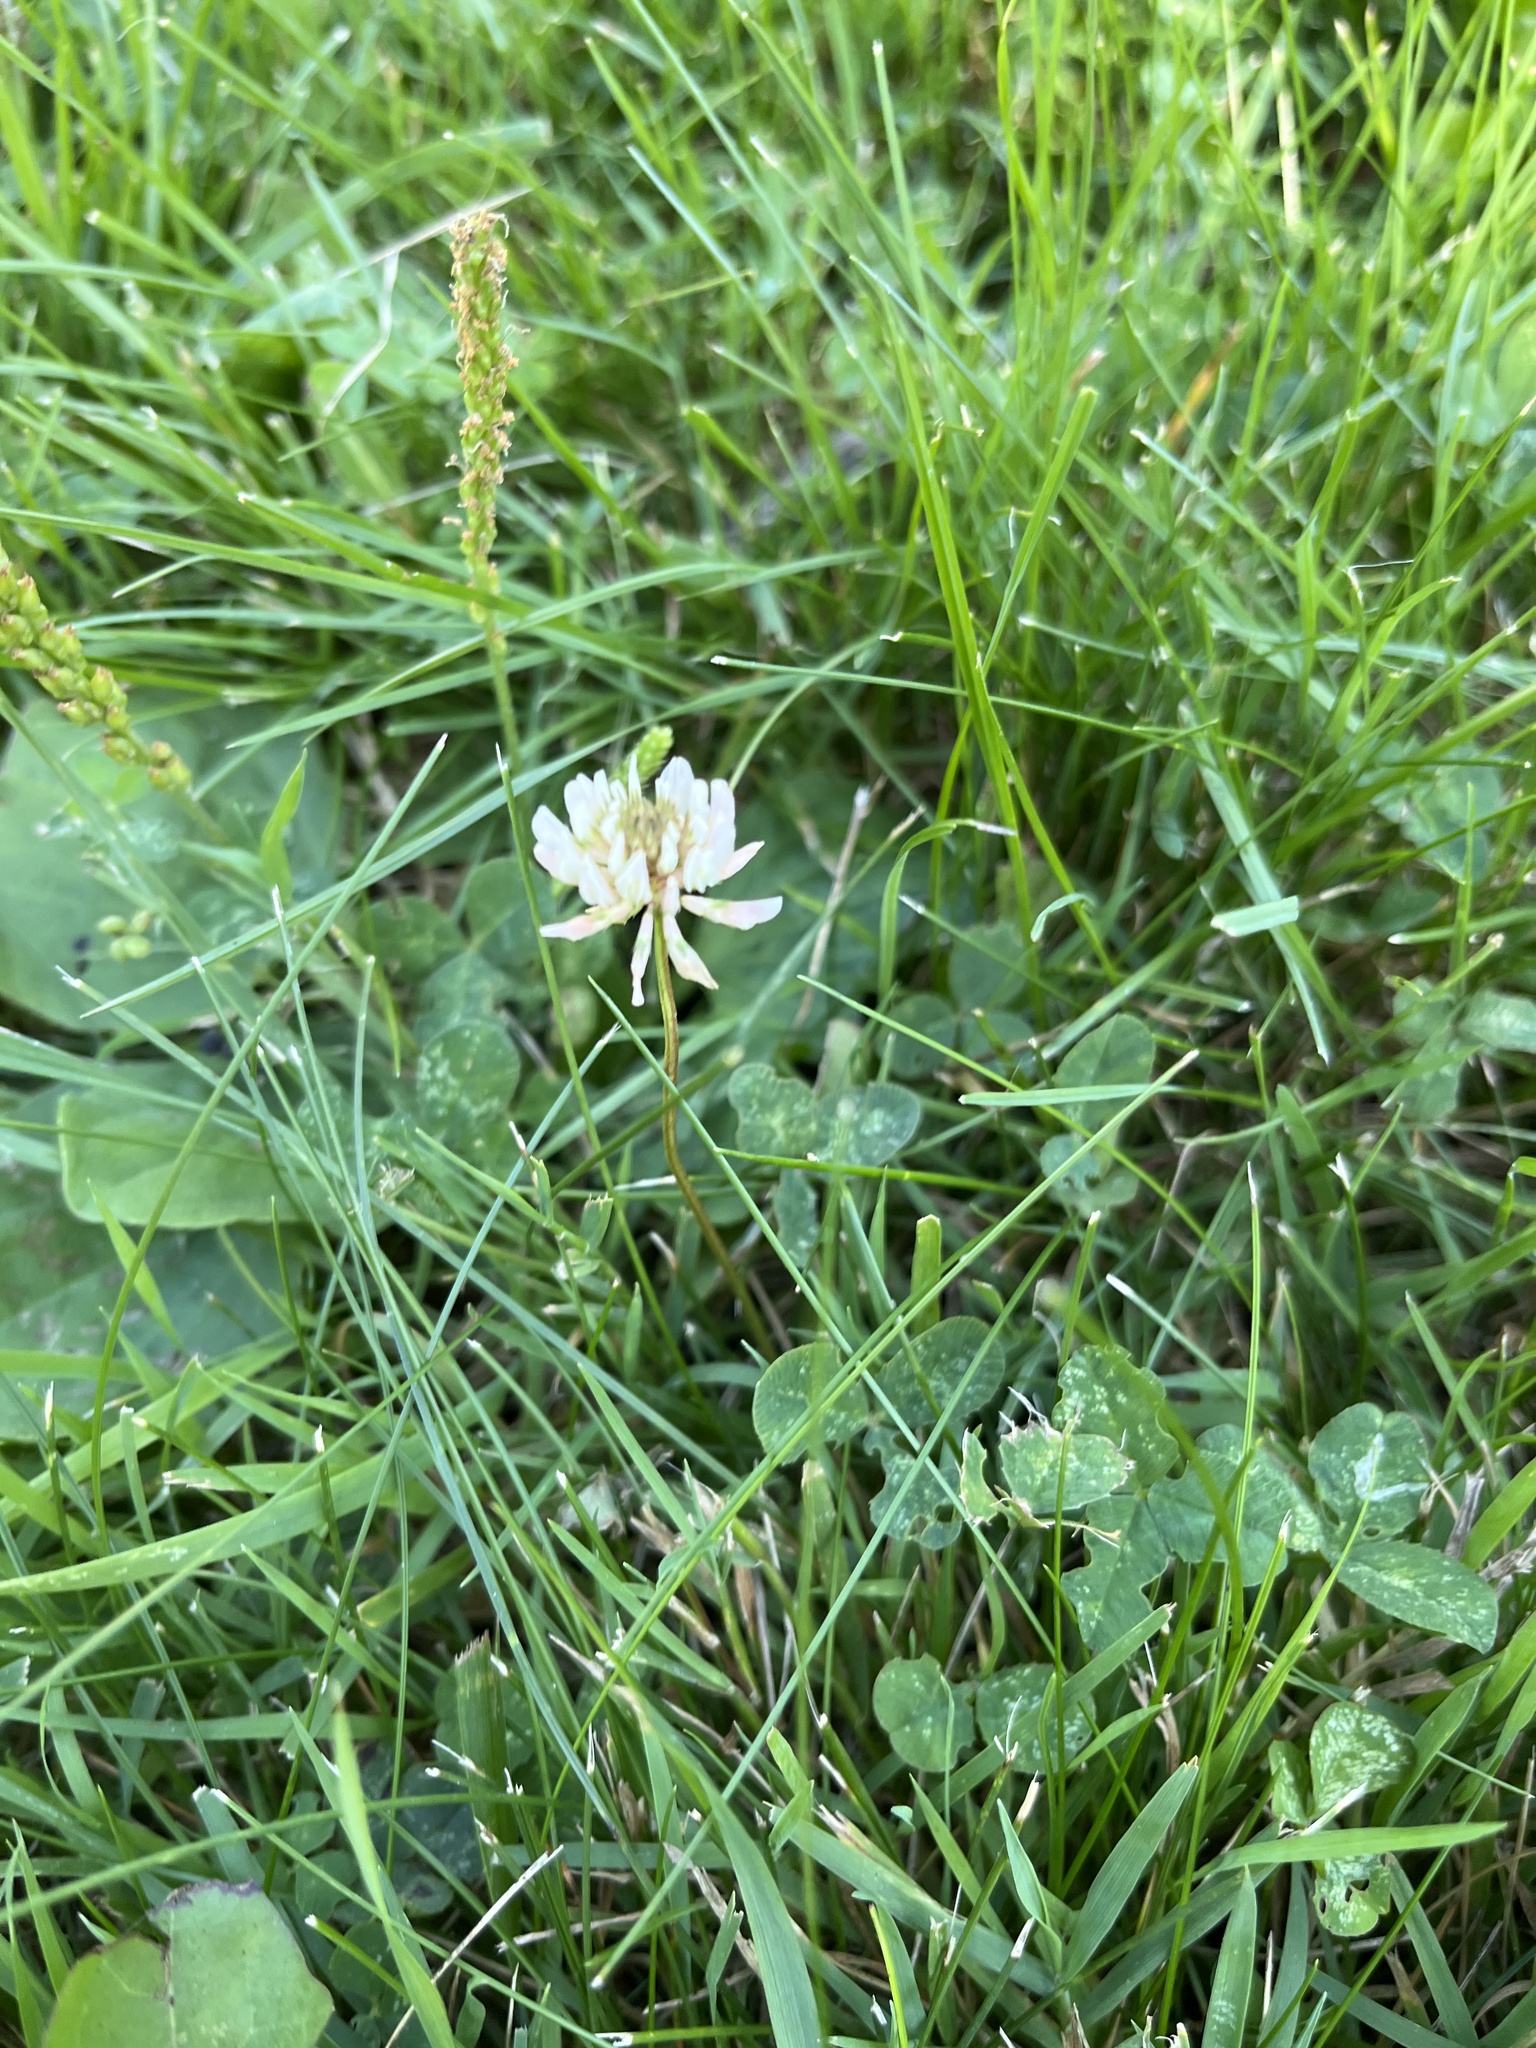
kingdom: Plantae
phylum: Tracheophyta
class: Magnoliopsida
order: Fabales
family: Fabaceae
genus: Trifolium
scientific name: Trifolium repens
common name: White clover
